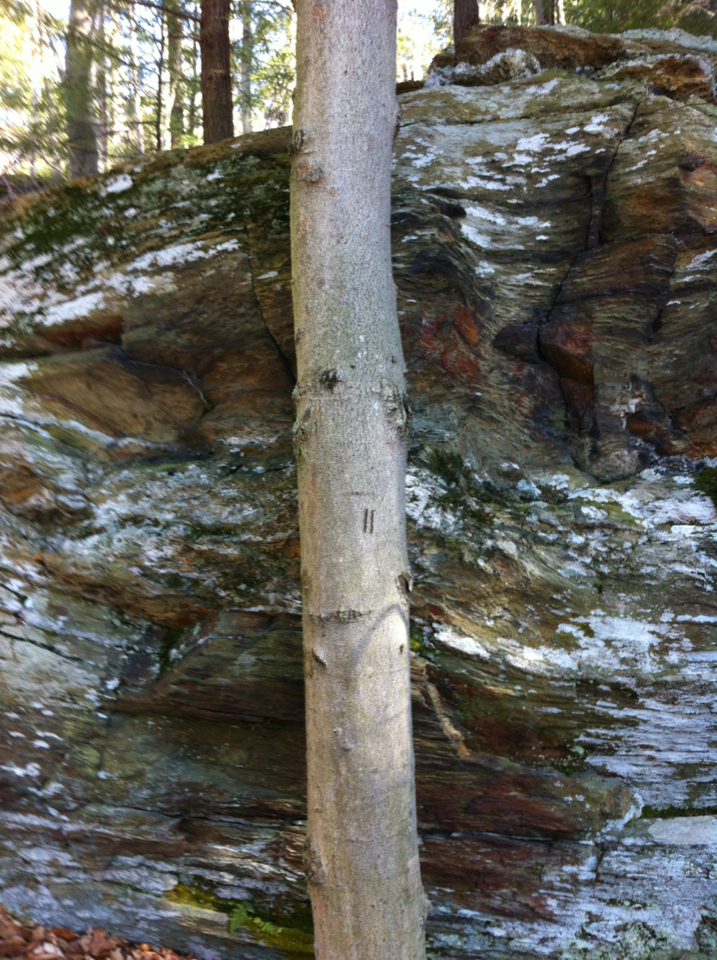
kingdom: Plantae
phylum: Tracheophyta
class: Magnoliopsida
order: Fagales
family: Fagaceae
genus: Fagus
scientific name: Fagus grandifolia
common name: American beech
